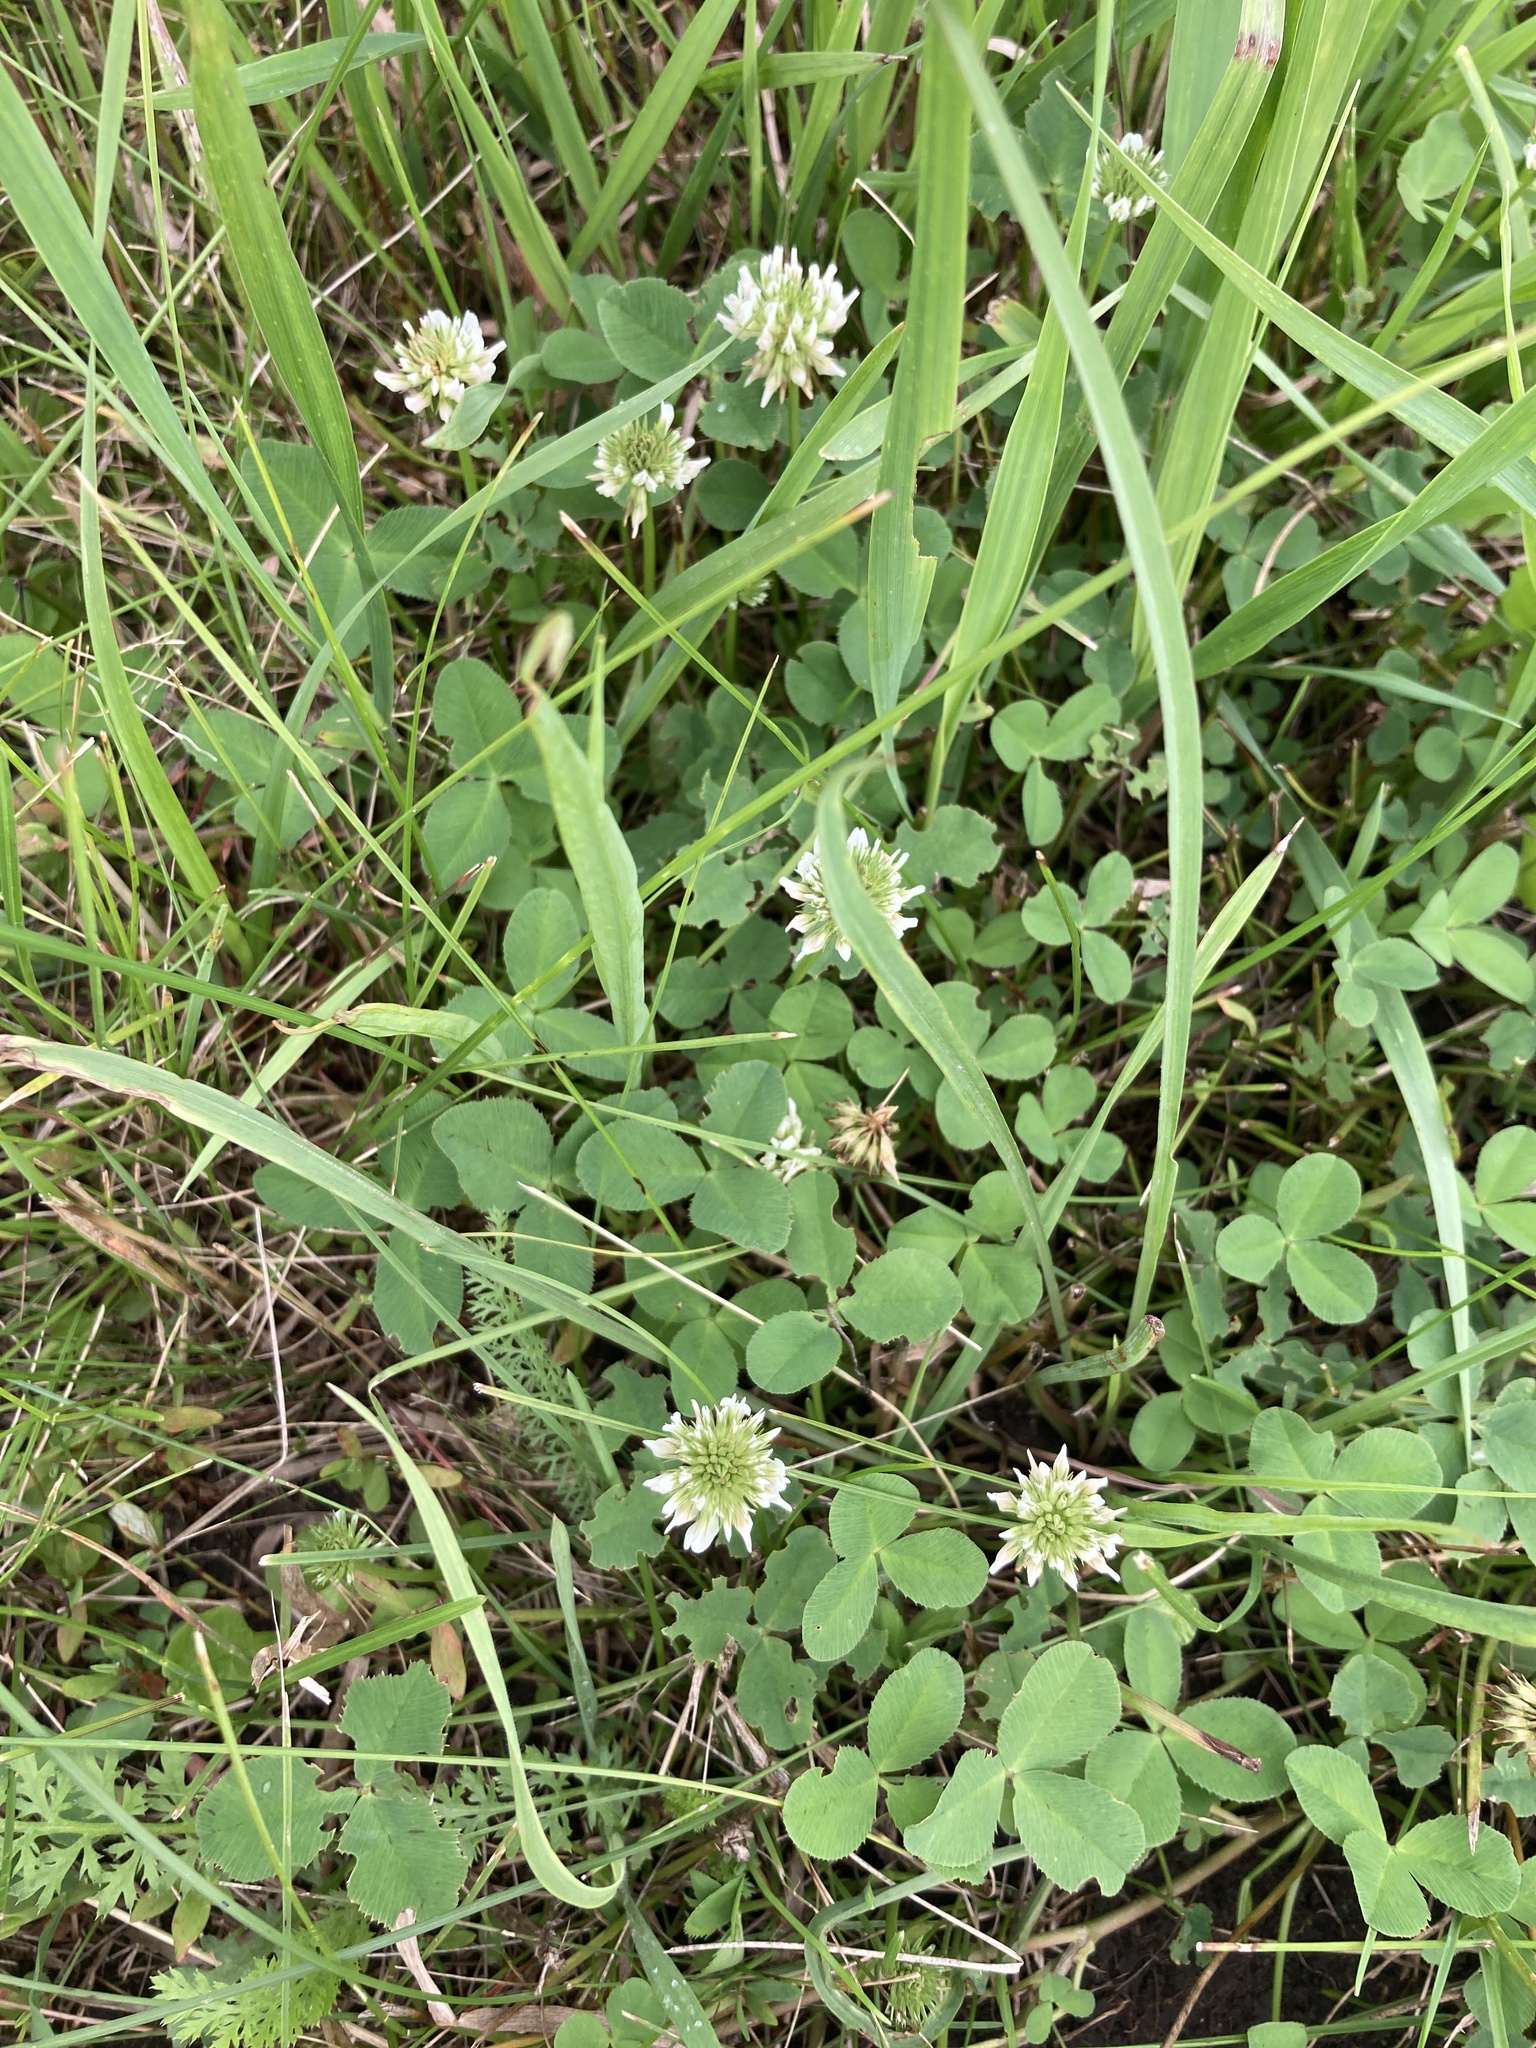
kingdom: Plantae
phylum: Tracheophyta
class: Magnoliopsida
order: Fabales
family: Fabaceae
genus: Trifolium
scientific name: Trifolium repens
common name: White clover
